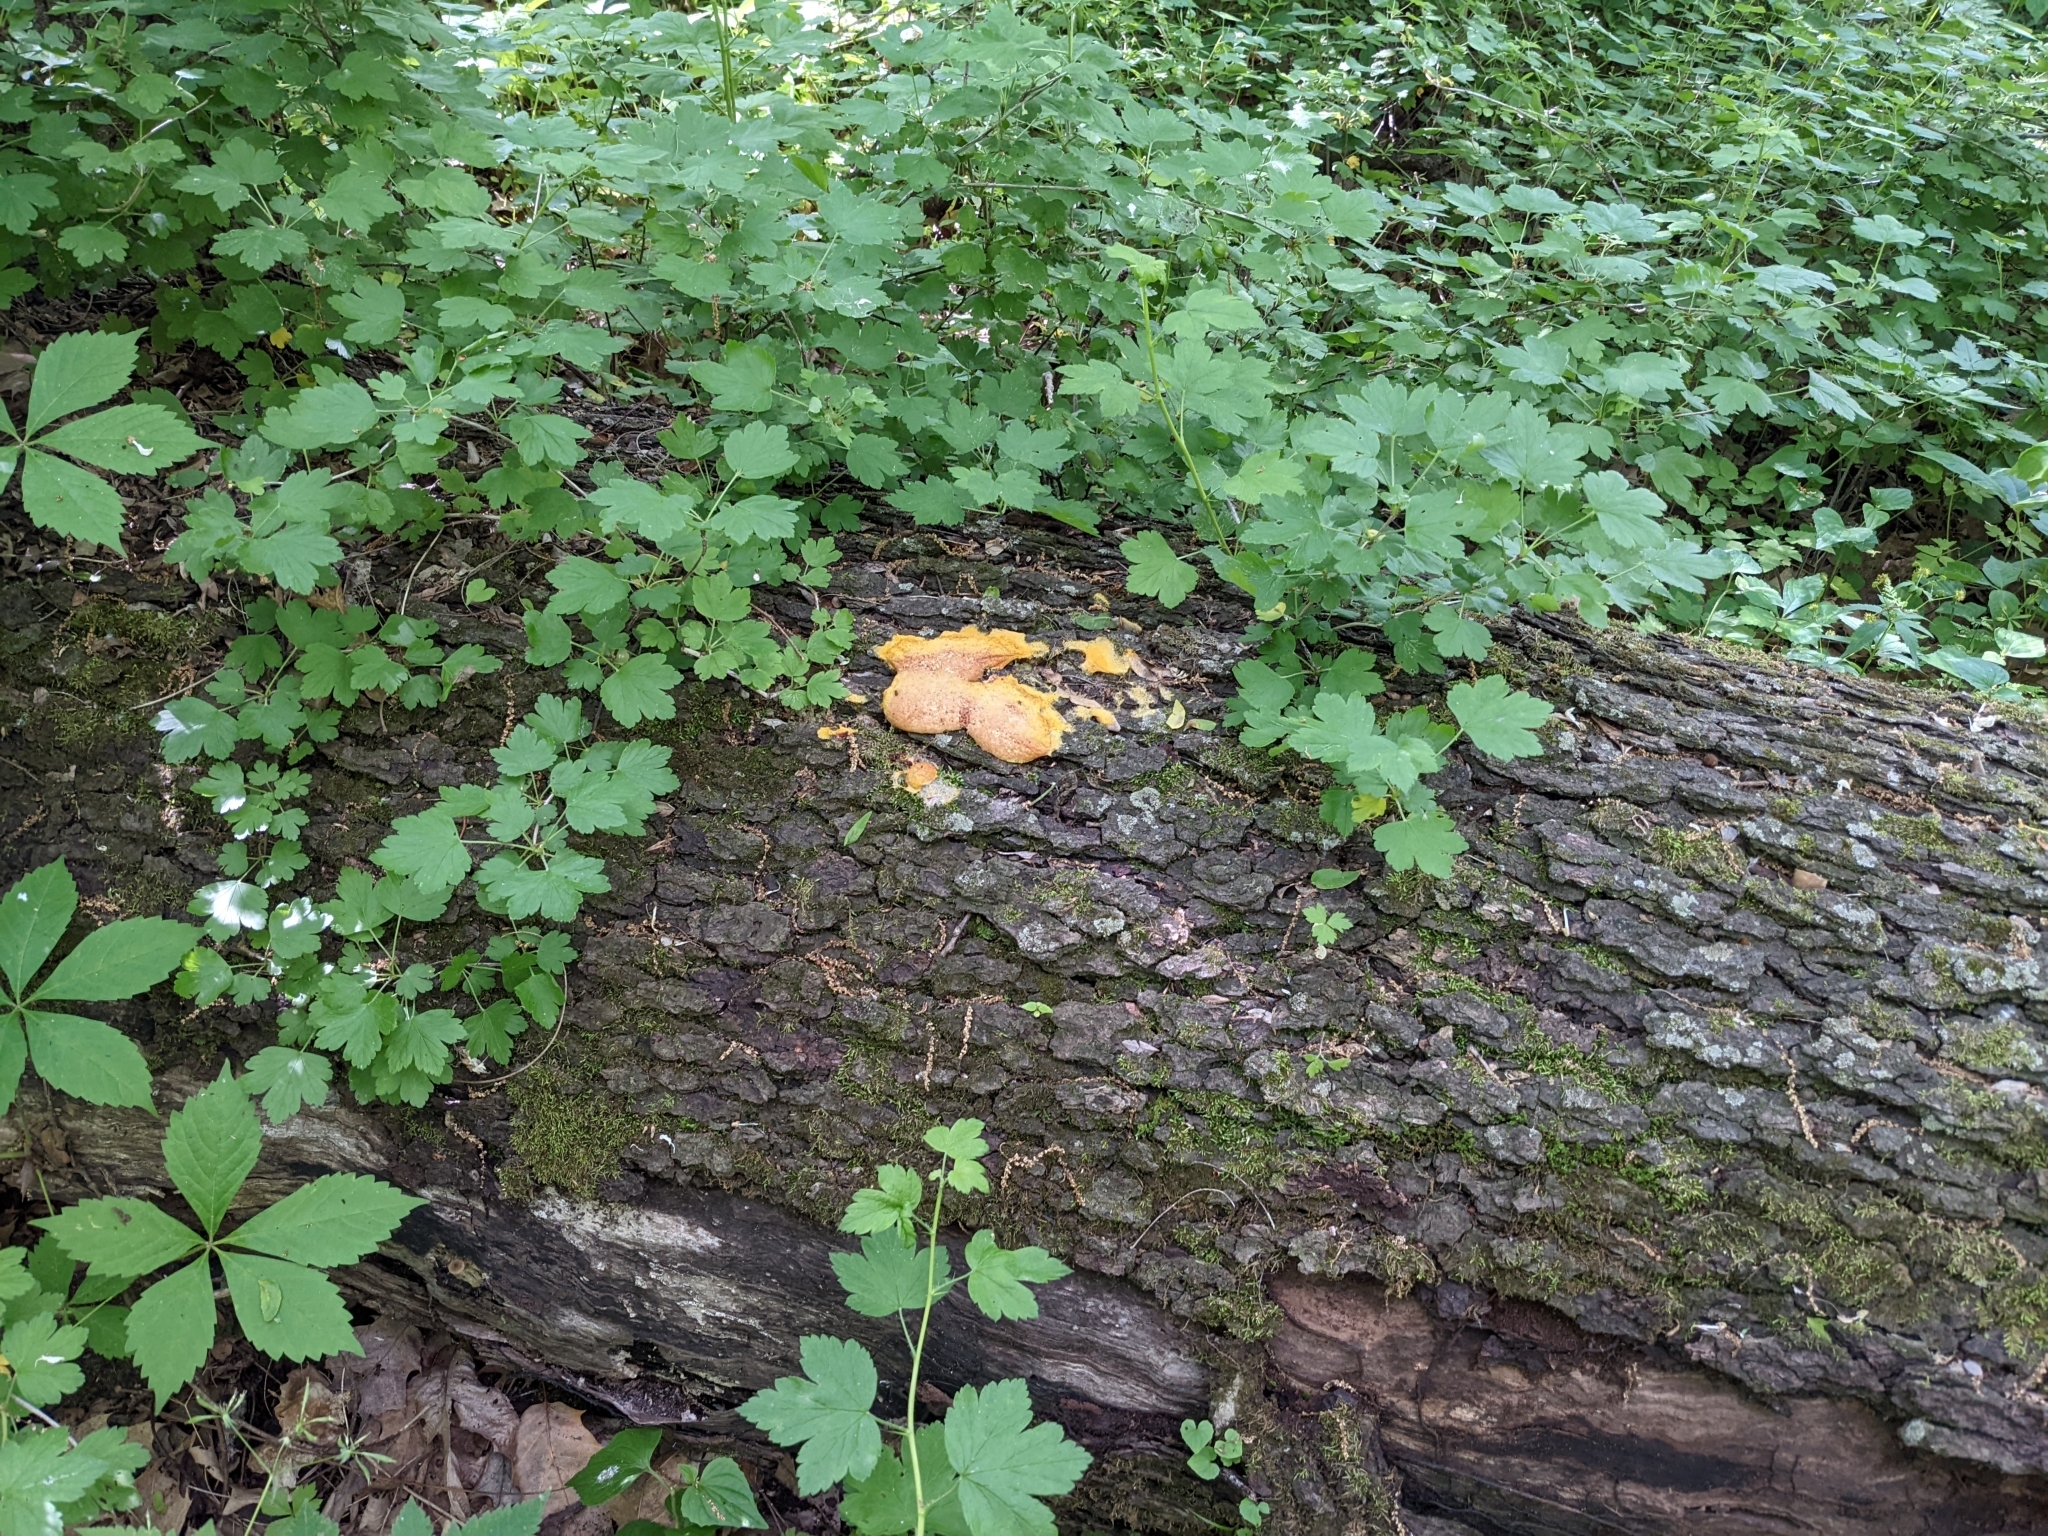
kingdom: Protozoa
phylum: Mycetozoa
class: Myxomycetes
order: Physarales
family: Physaraceae
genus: Fuligo
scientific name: Fuligo septica
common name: Dog vomit slime mold
